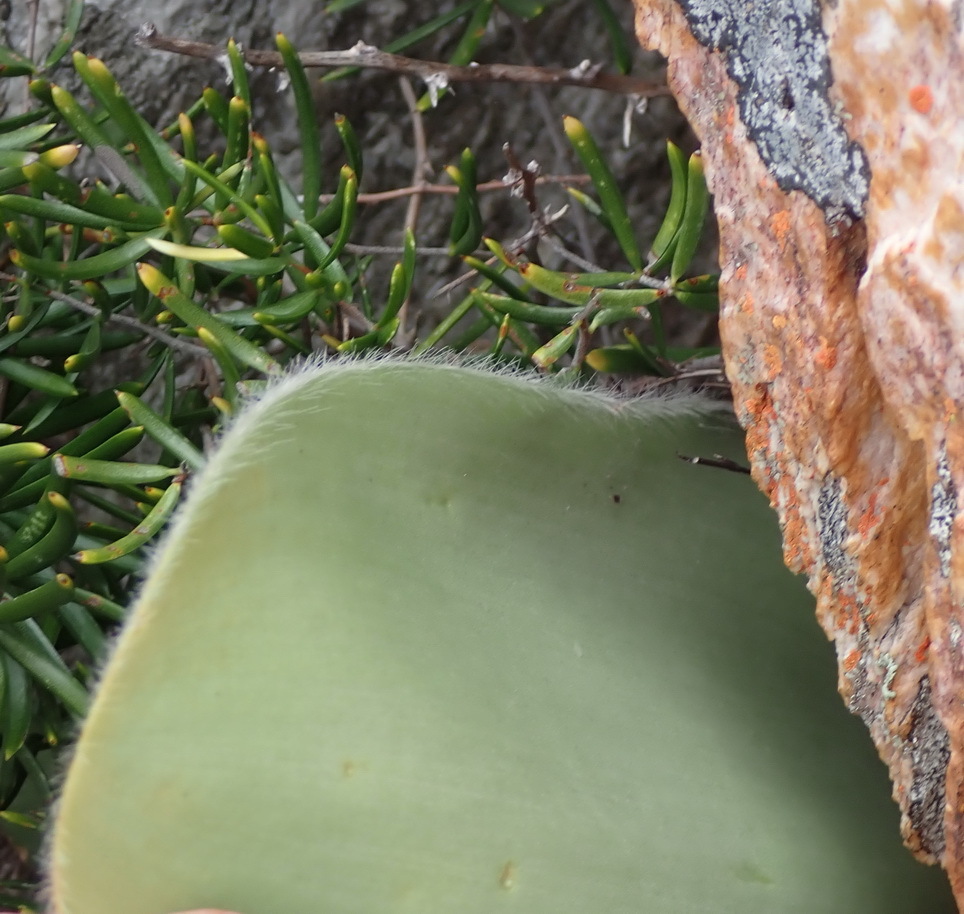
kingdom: Plantae
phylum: Tracheophyta
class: Liliopsida
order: Asparagales
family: Amaryllidaceae
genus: Haemanthus
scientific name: Haemanthus albiflos
